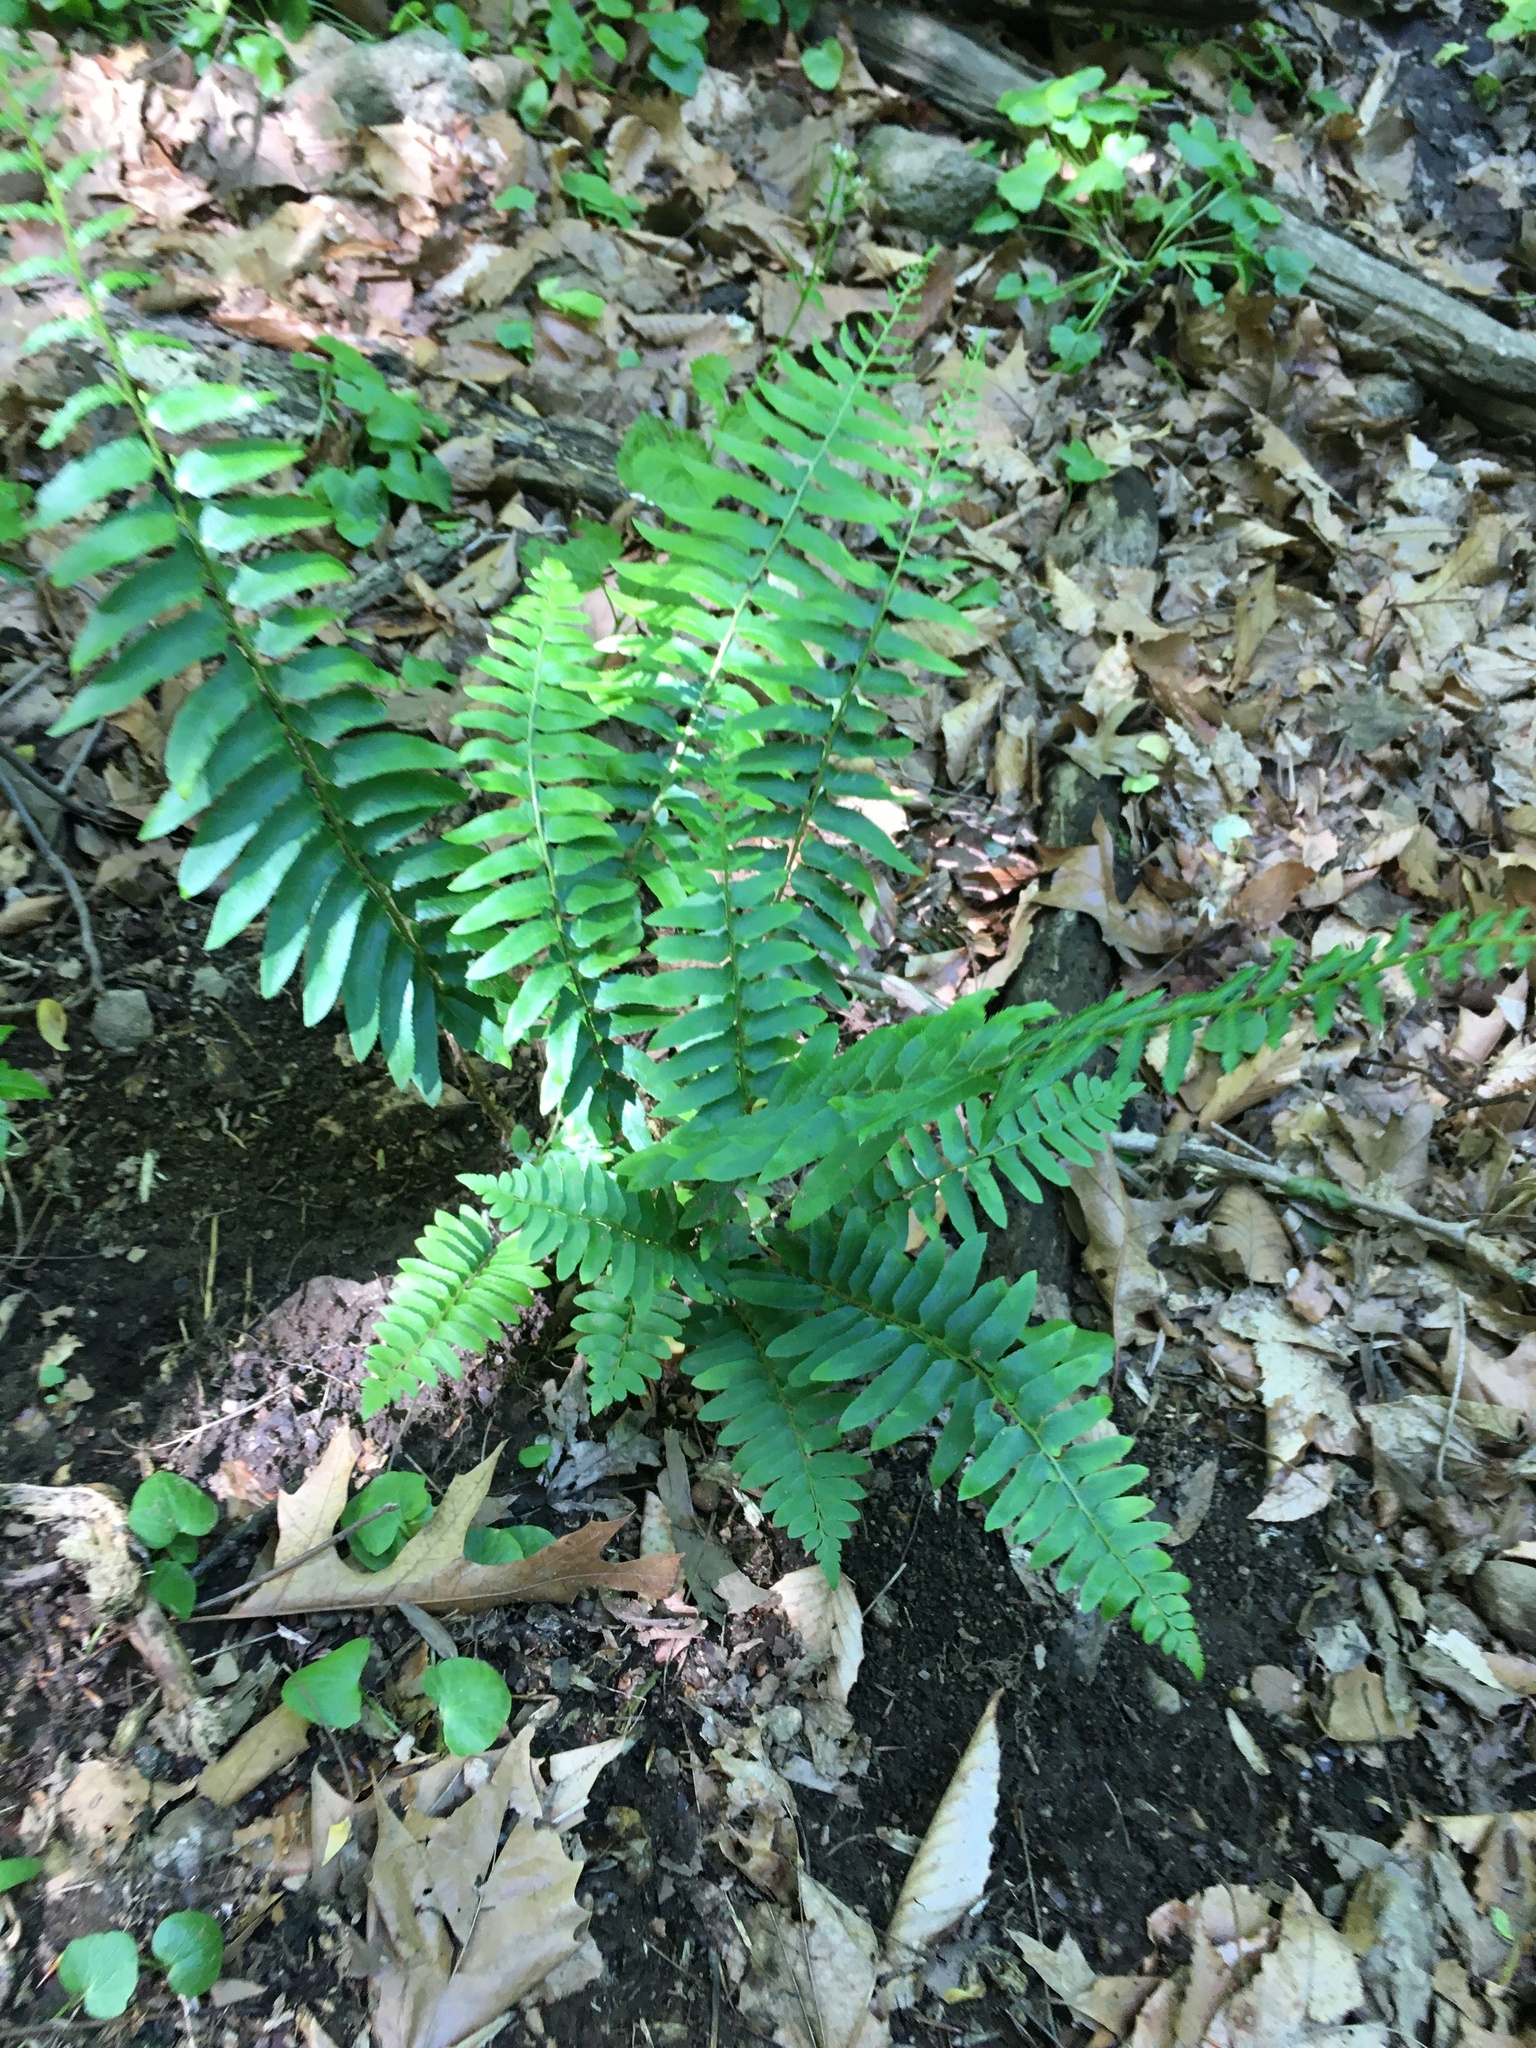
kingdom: Plantae
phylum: Tracheophyta
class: Polypodiopsida
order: Polypodiales
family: Dryopteridaceae
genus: Polystichum
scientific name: Polystichum acrostichoides
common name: Christmas fern
